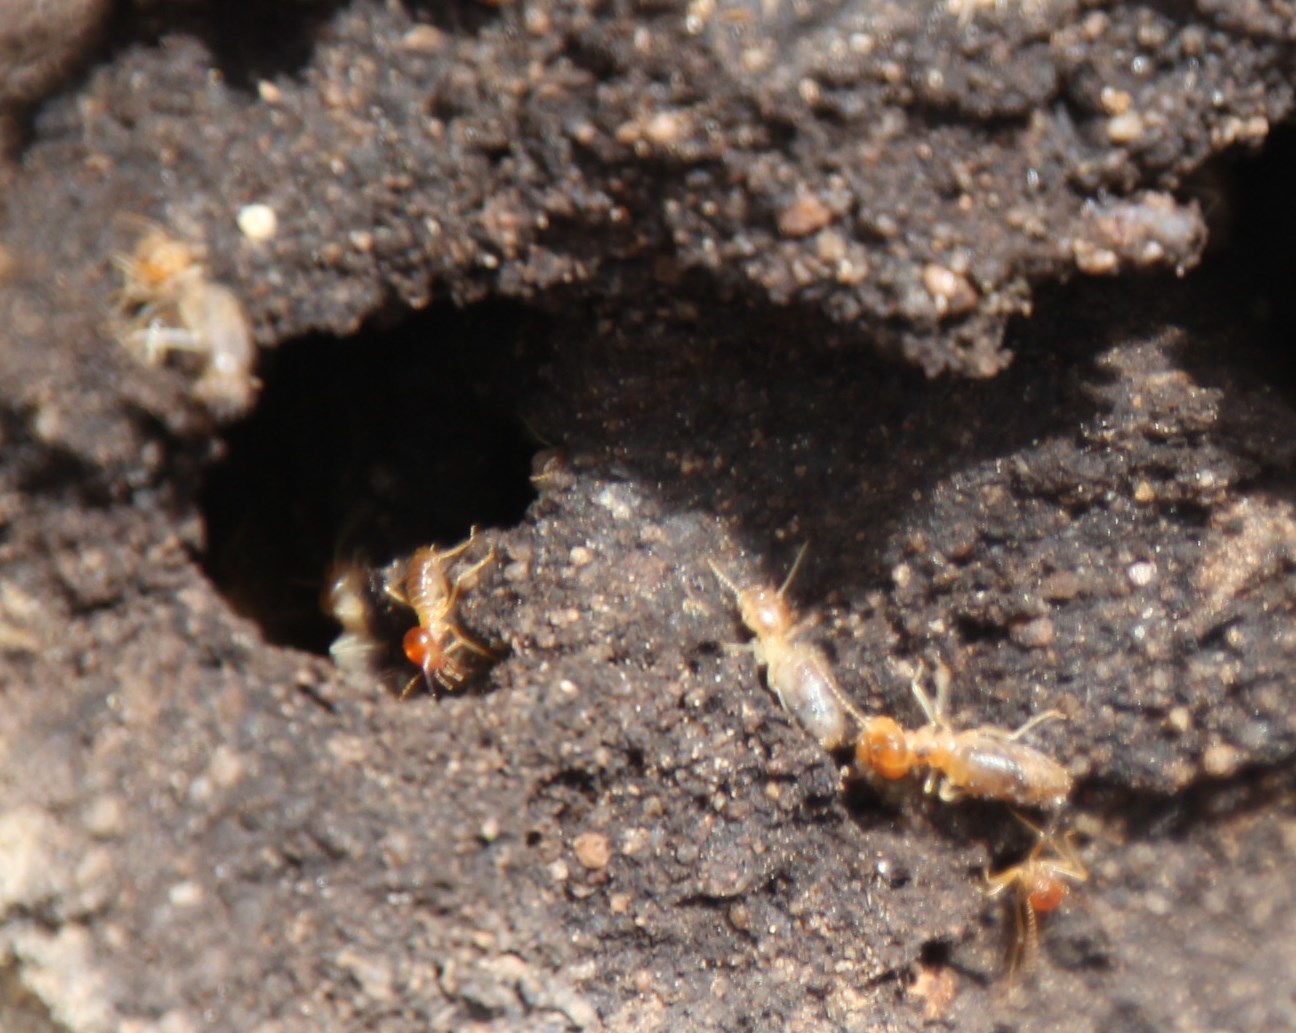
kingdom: Animalia
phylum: Arthropoda
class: Insecta
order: Blattodea
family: Termitidae
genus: Amitermes
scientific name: Amitermes hastatus
